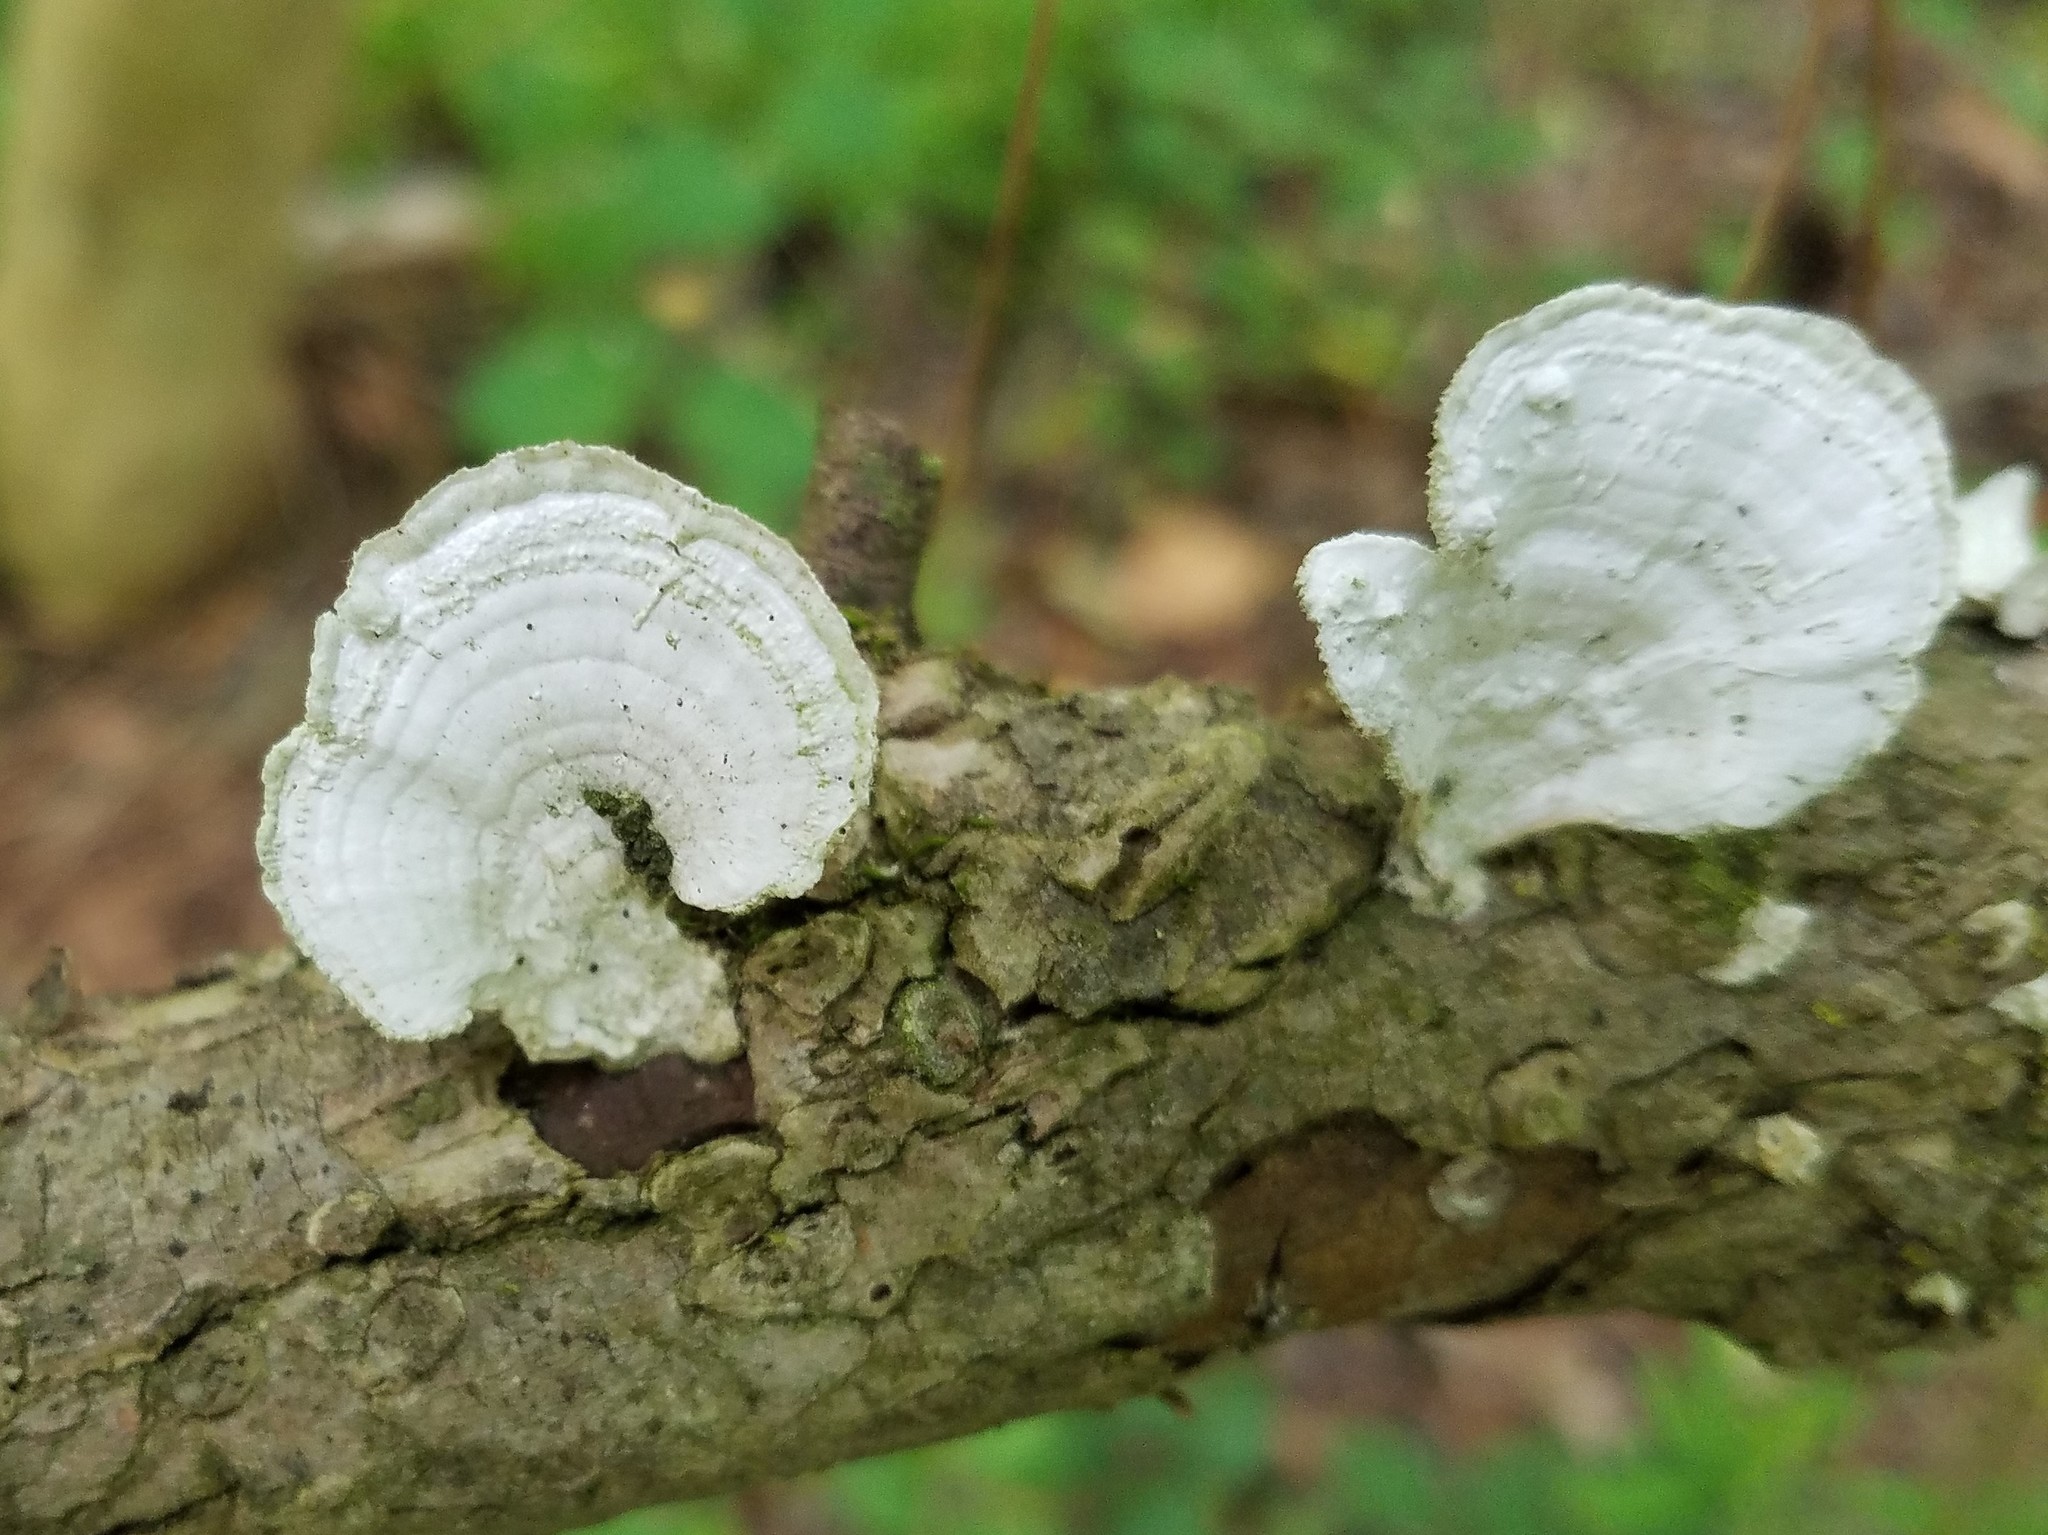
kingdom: Fungi
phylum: Basidiomycota
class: Agaricomycetes
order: Polyporales
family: Polyporaceae
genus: Poronidulus
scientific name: Poronidulus conchifer
